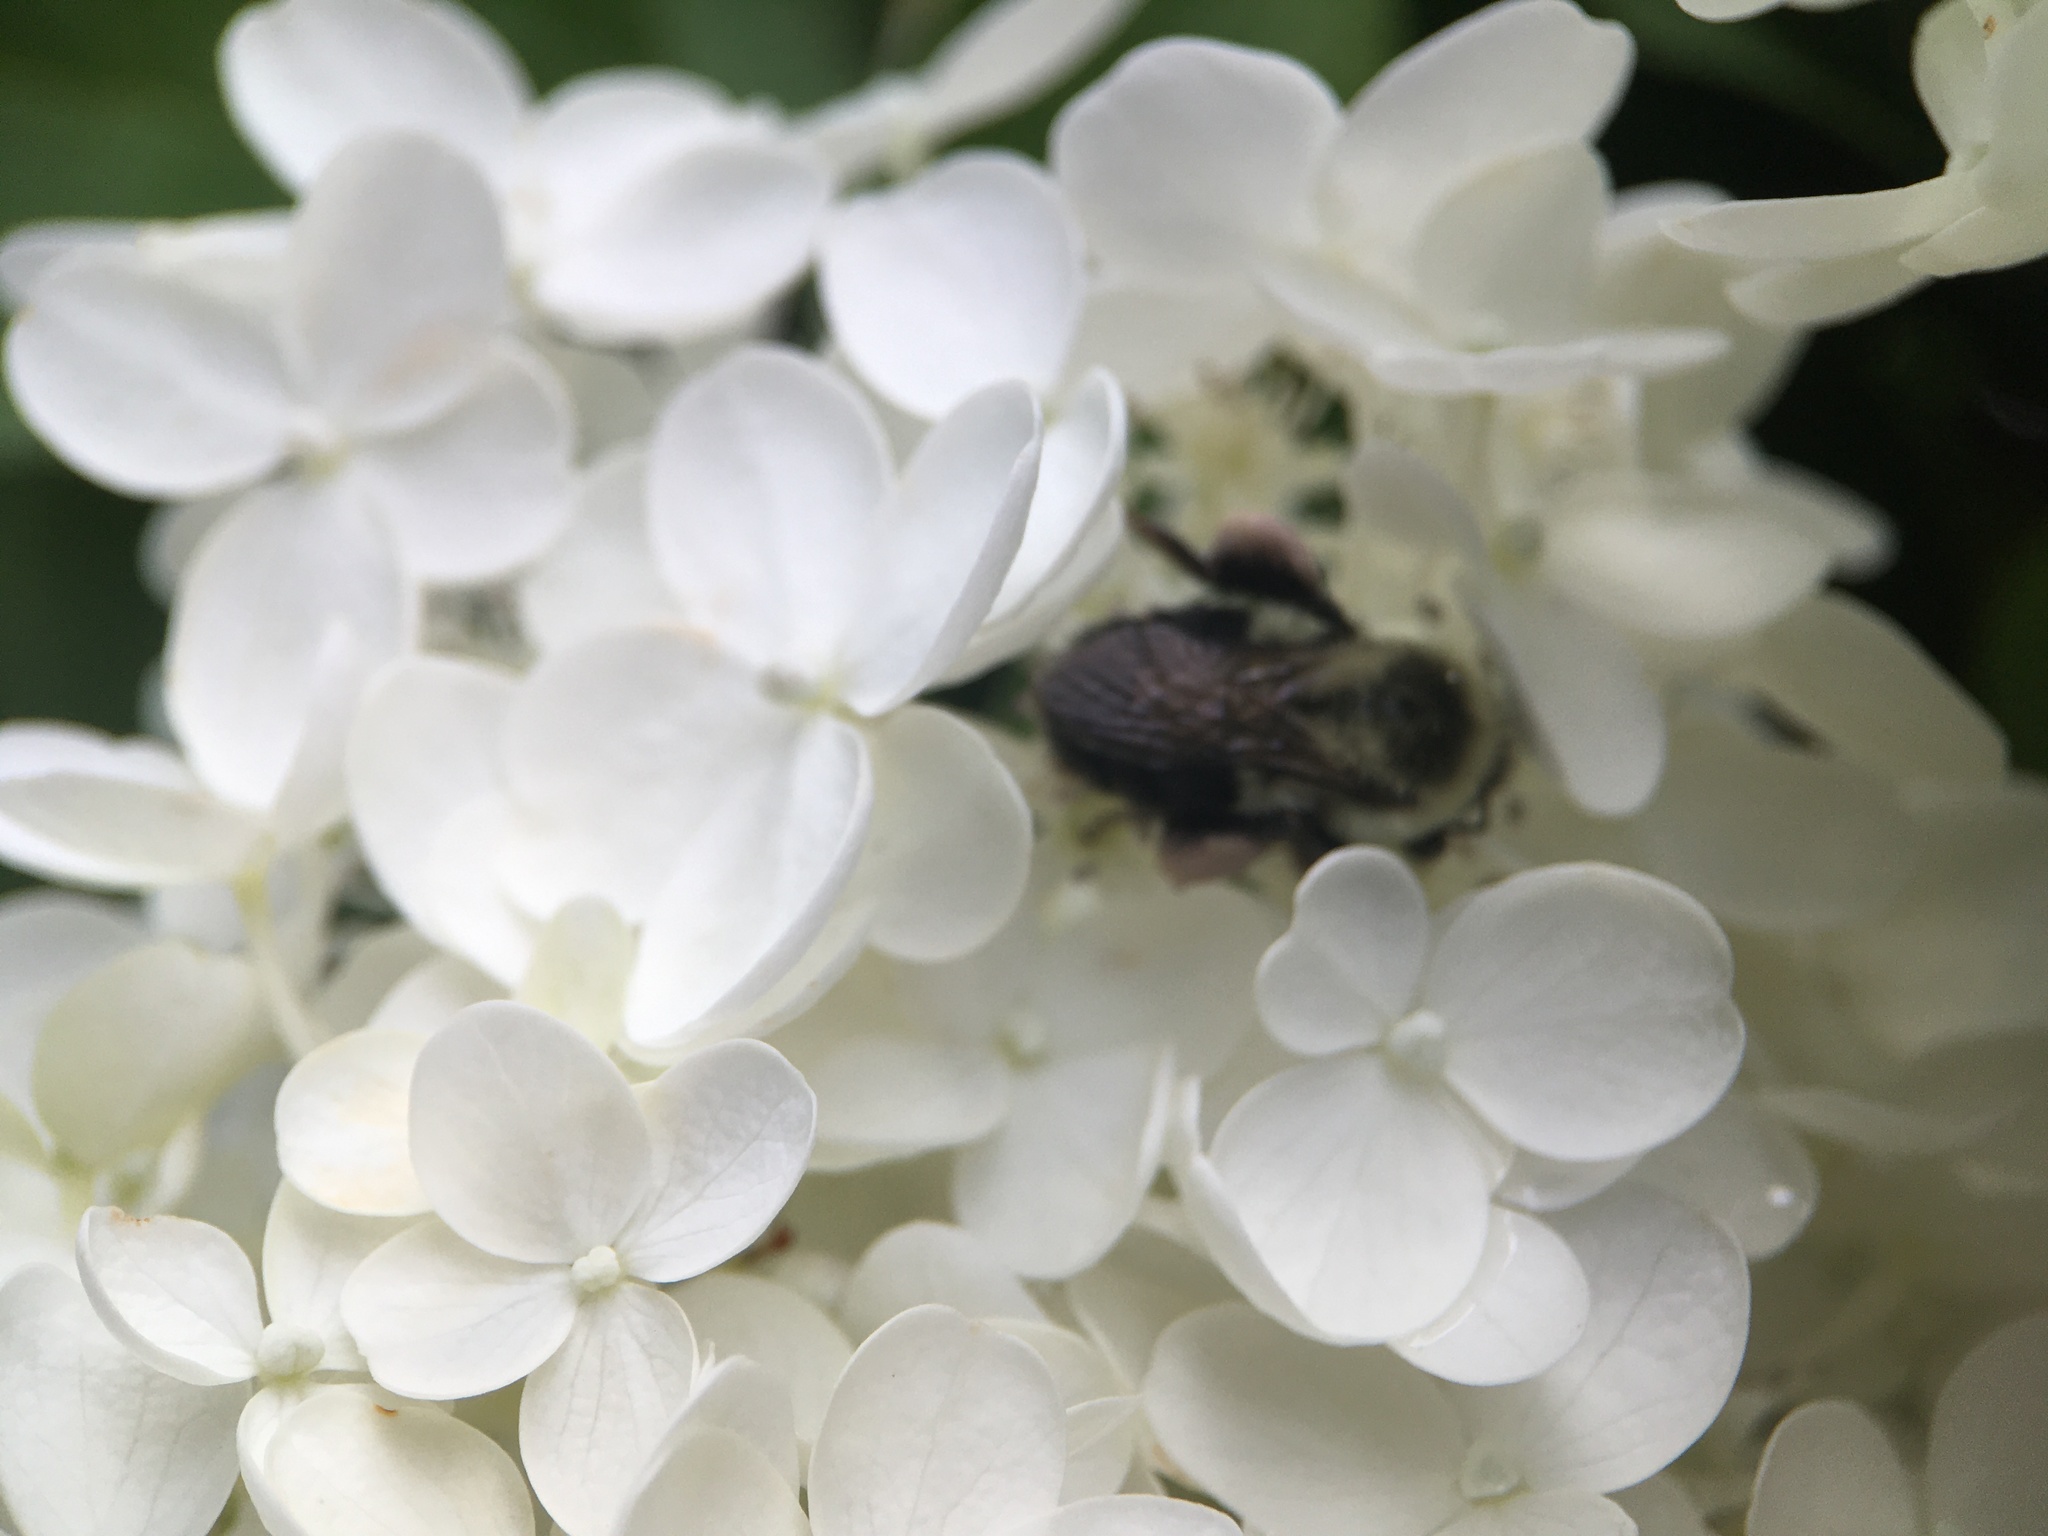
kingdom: Animalia
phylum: Arthropoda
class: Insecta
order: Hymenoptera
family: Apidae
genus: Bombus
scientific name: Bombus impatiens
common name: Common eastern bumble bee
